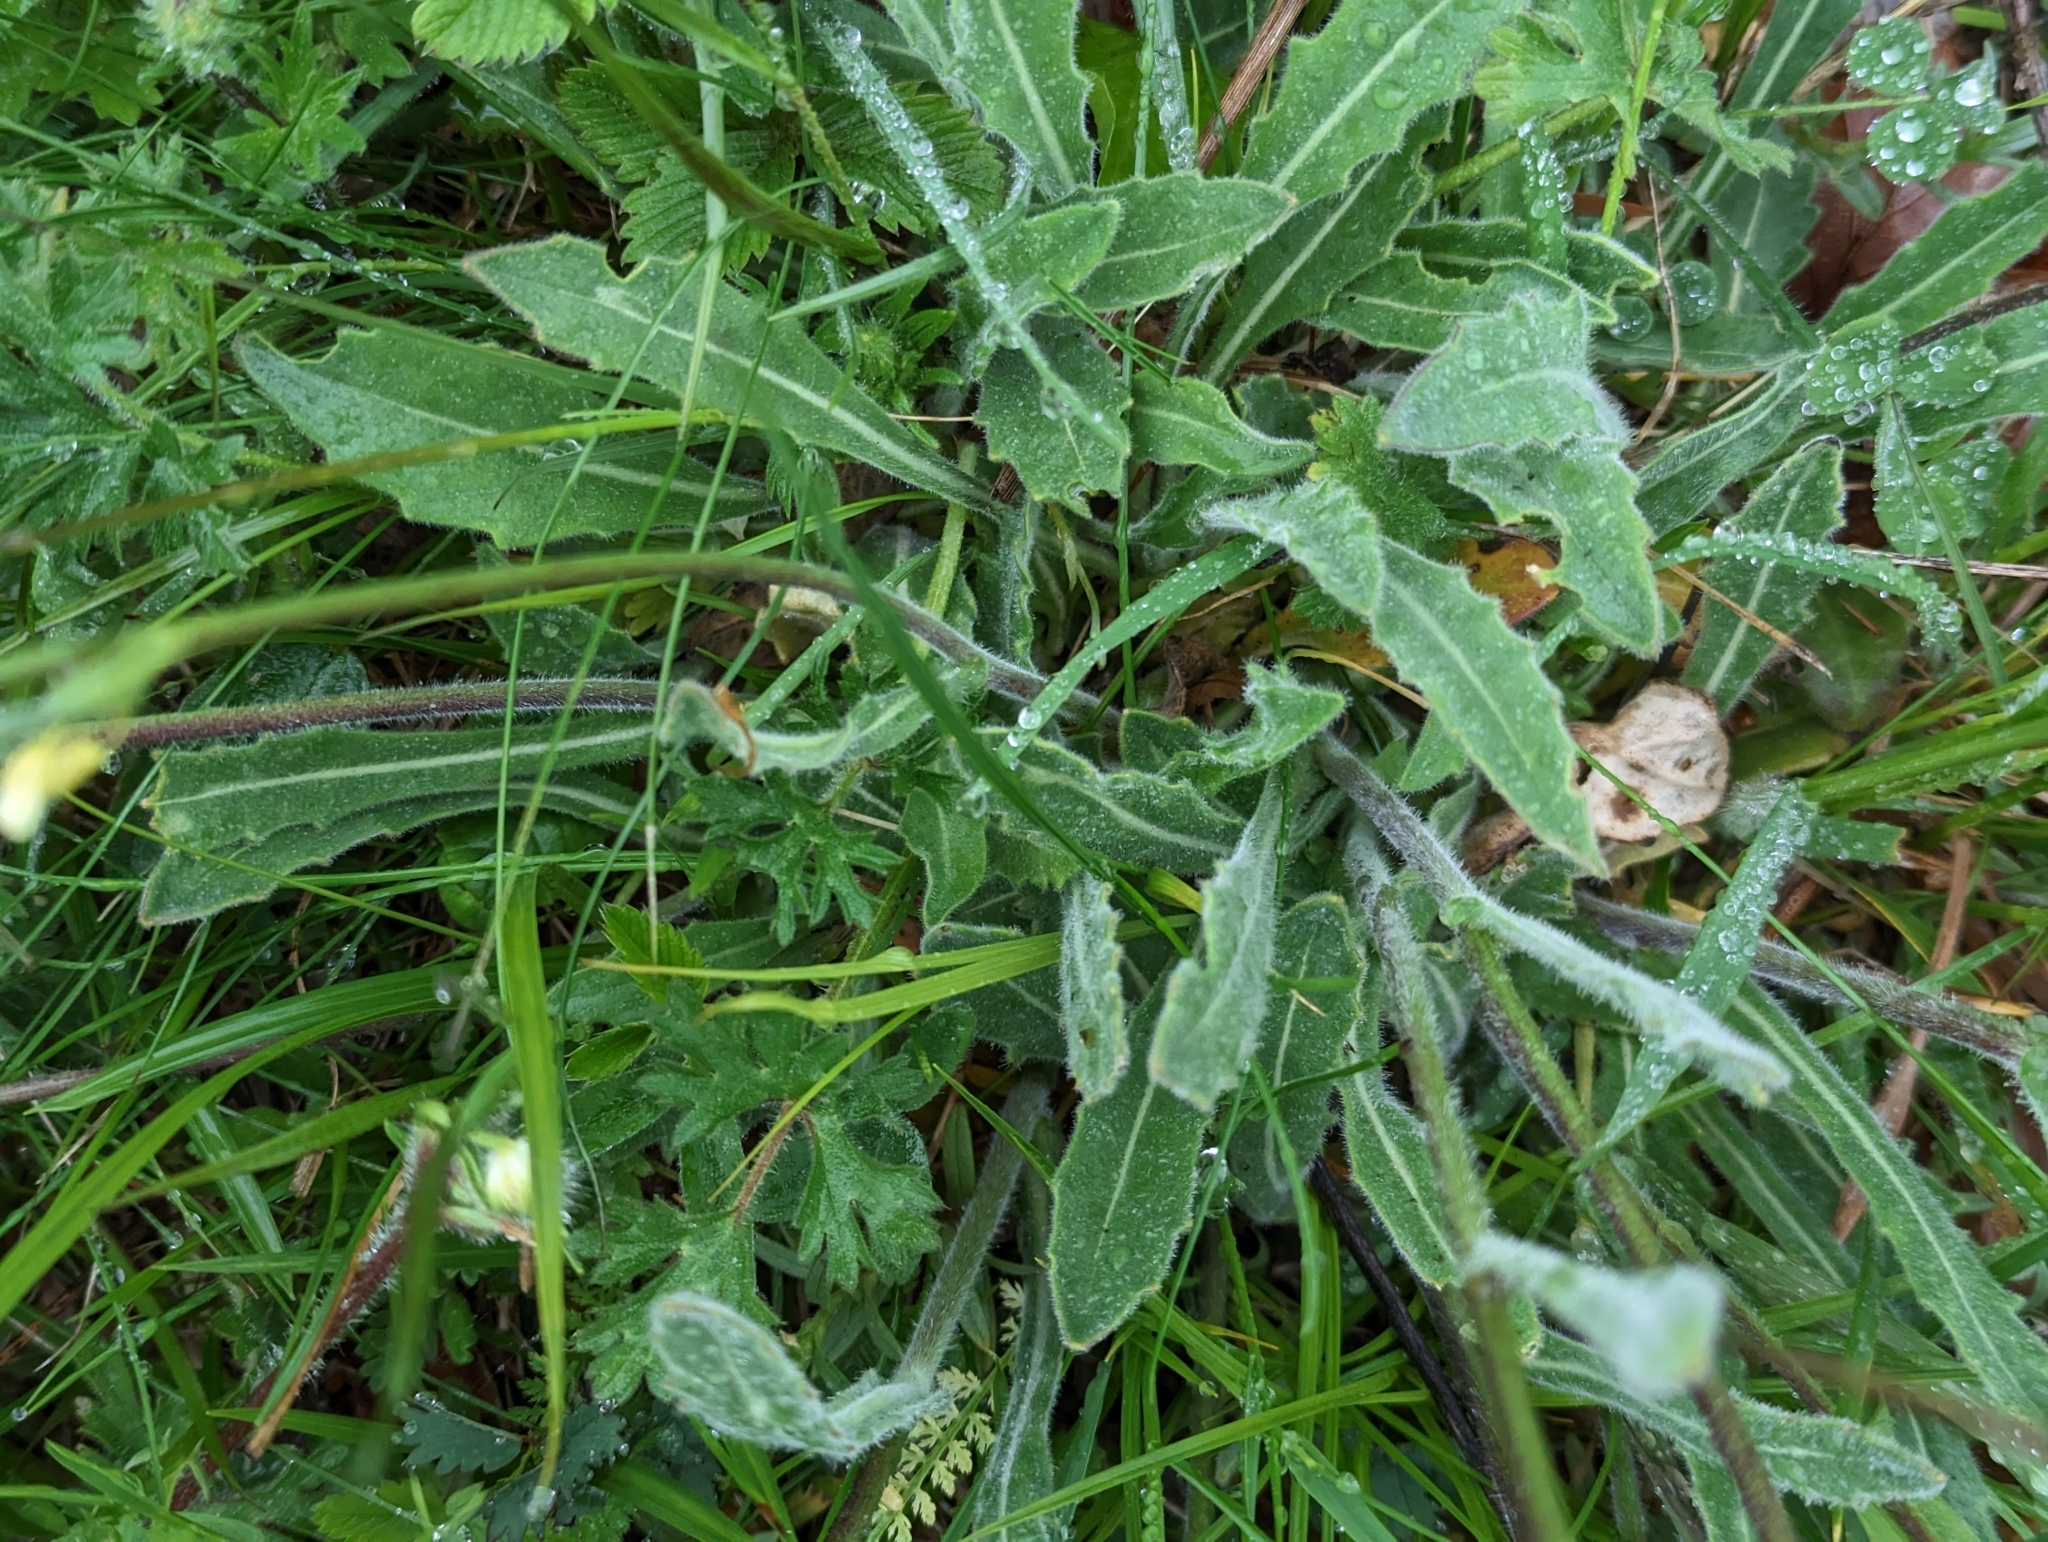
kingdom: Plantae
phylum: Tracheophyta
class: Magnoliopsida
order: Brassicales
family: Brassicaceae
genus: Biscutella
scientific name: Biscutella laevigata
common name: Buckler mustard
